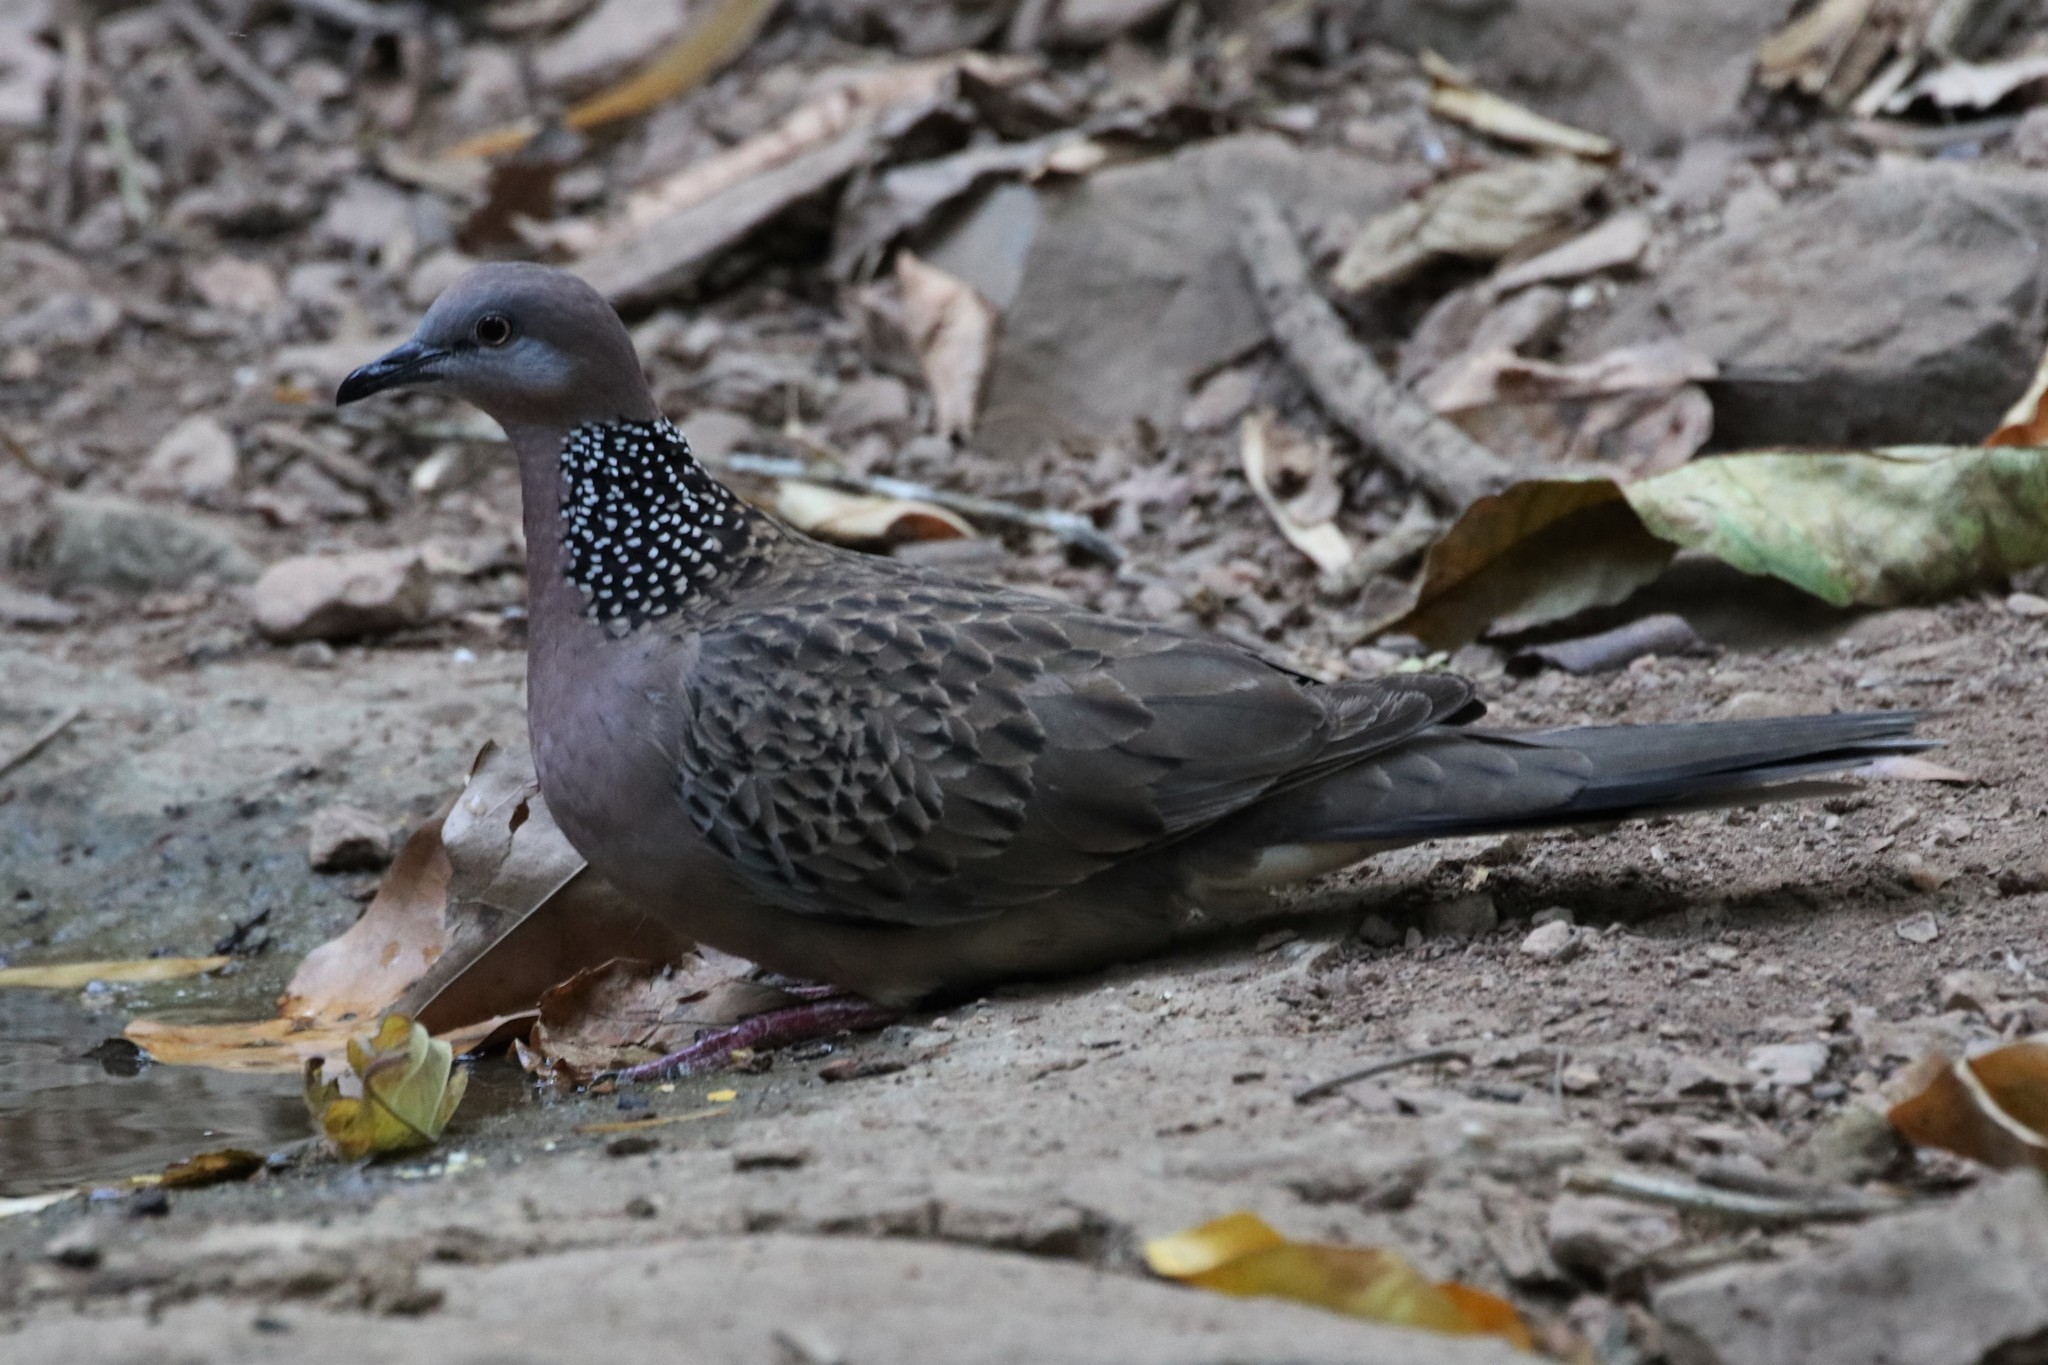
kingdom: Animalia
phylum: Chordata
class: Aves
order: Columbiformes
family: Columbidae
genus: Spilopelia
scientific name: Spilopelia chinensis
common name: Spotted dove
